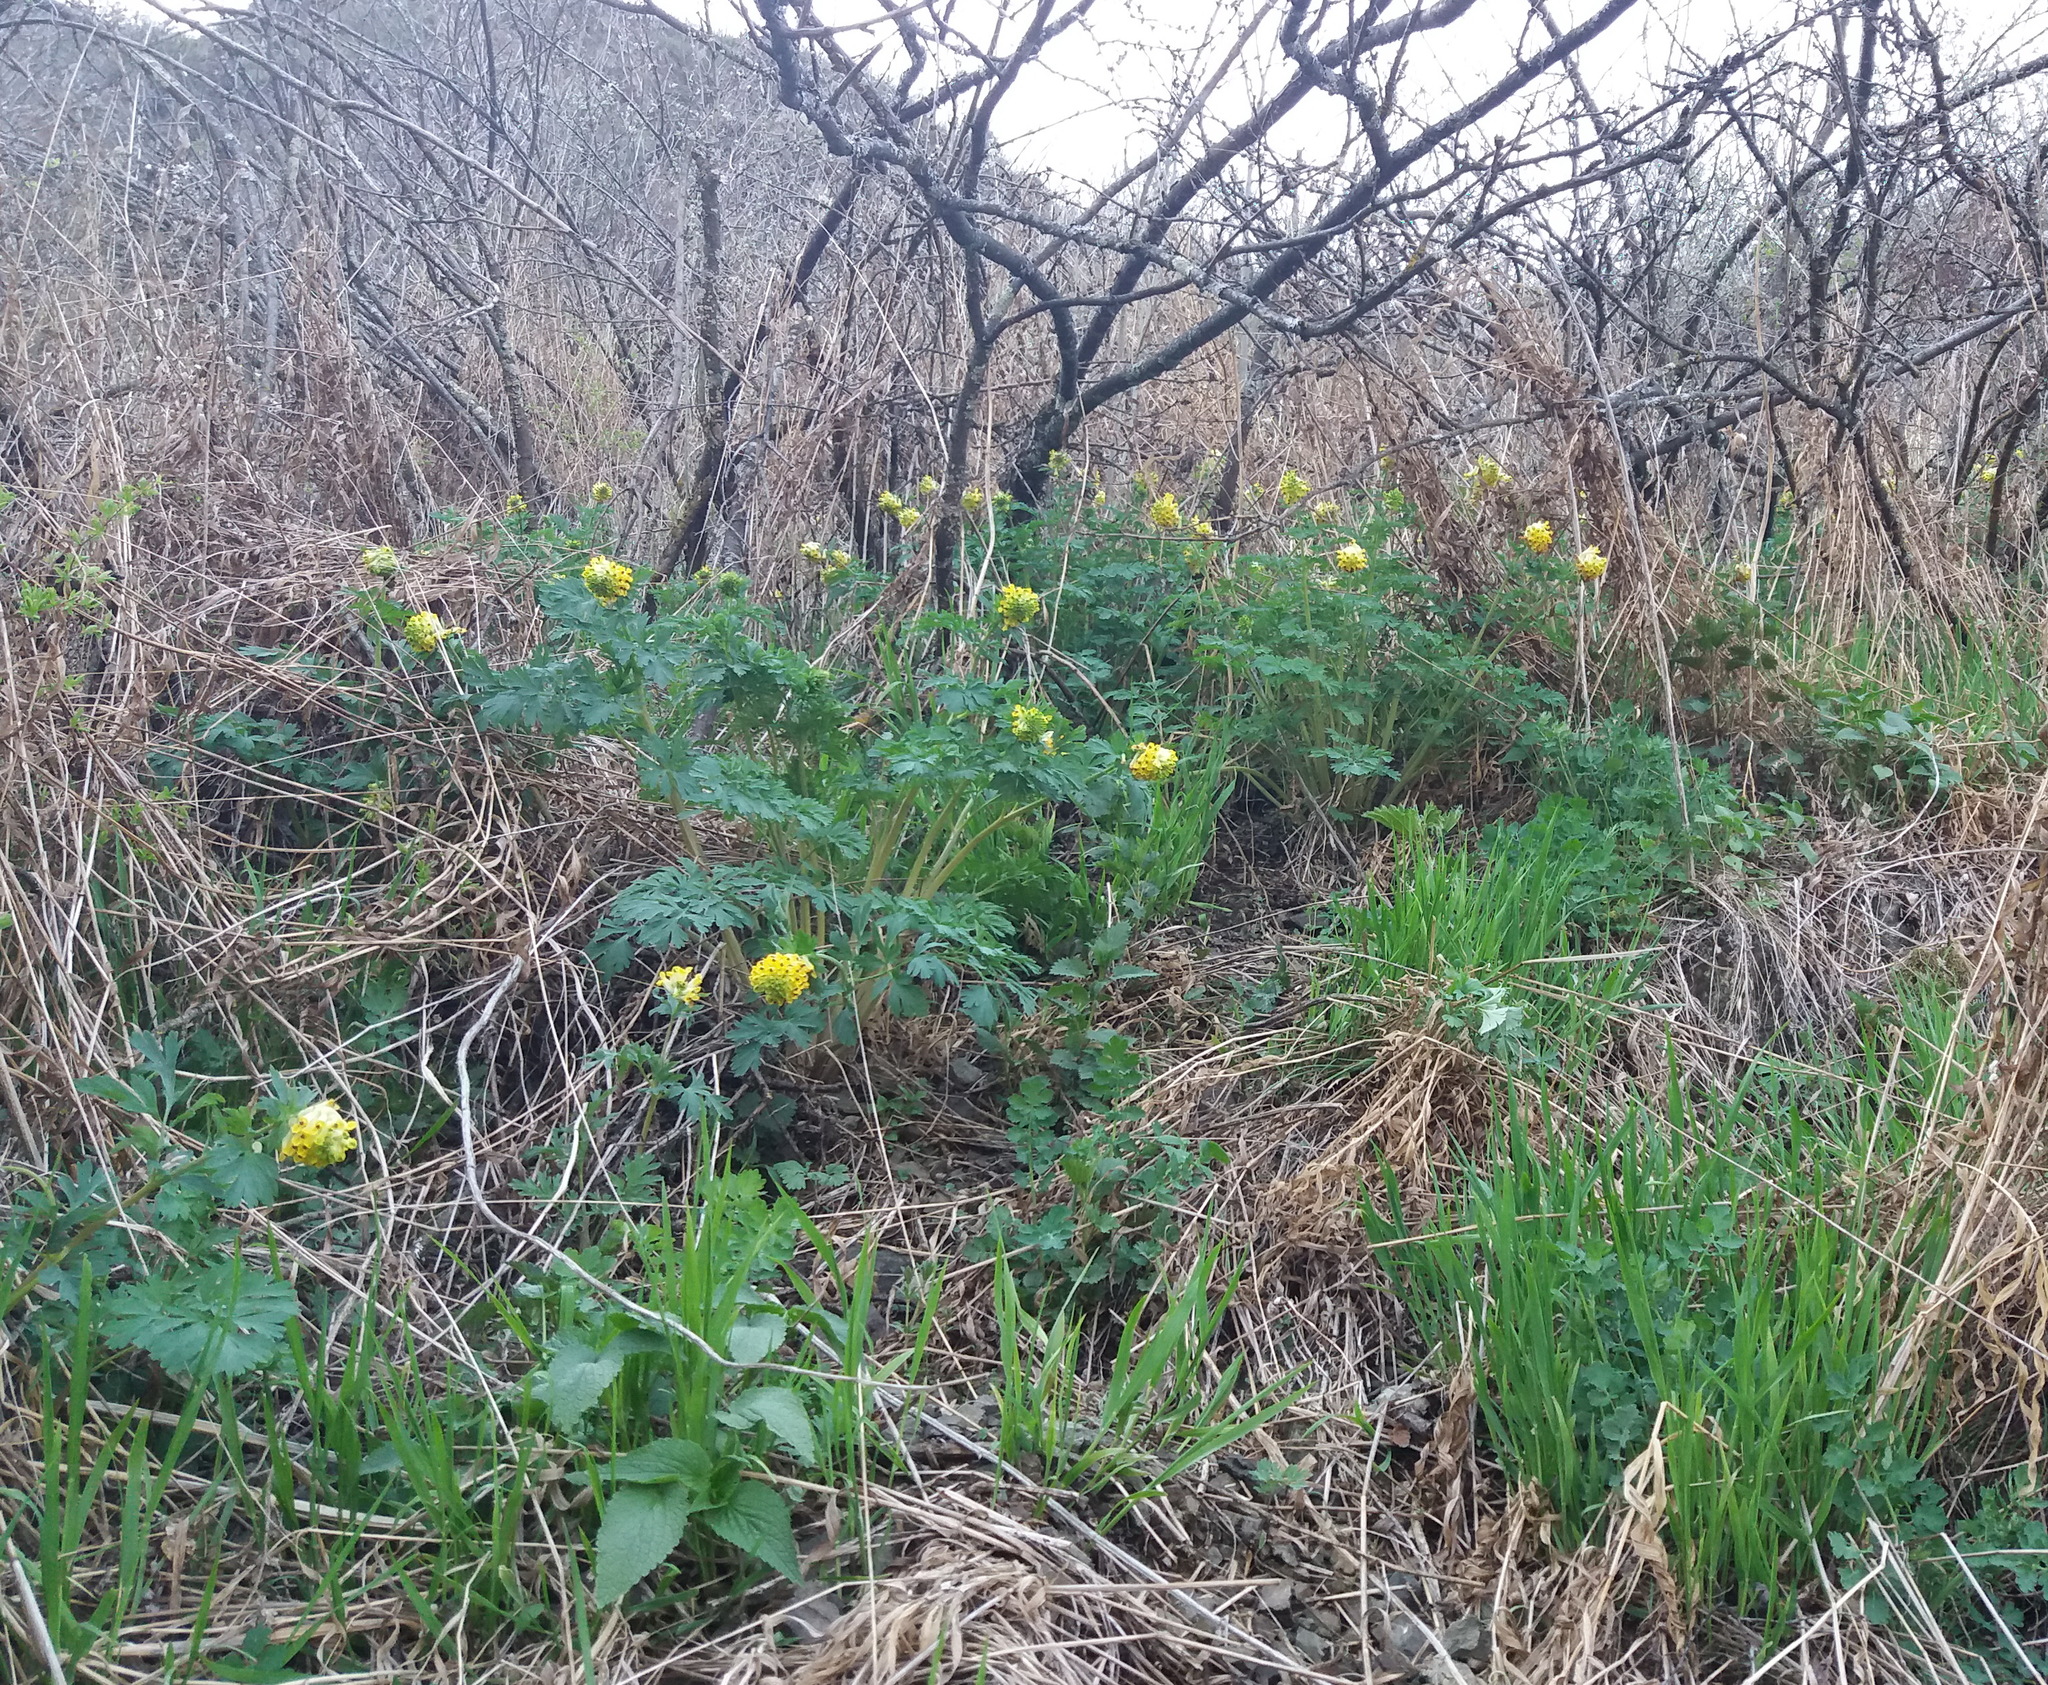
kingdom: Plantae
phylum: Tracheophyta
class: Magnoliopsida
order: Ranunculales
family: Papaveraceae
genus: Corydalis
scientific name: Corydalis nobilis
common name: Siberian corydalis
